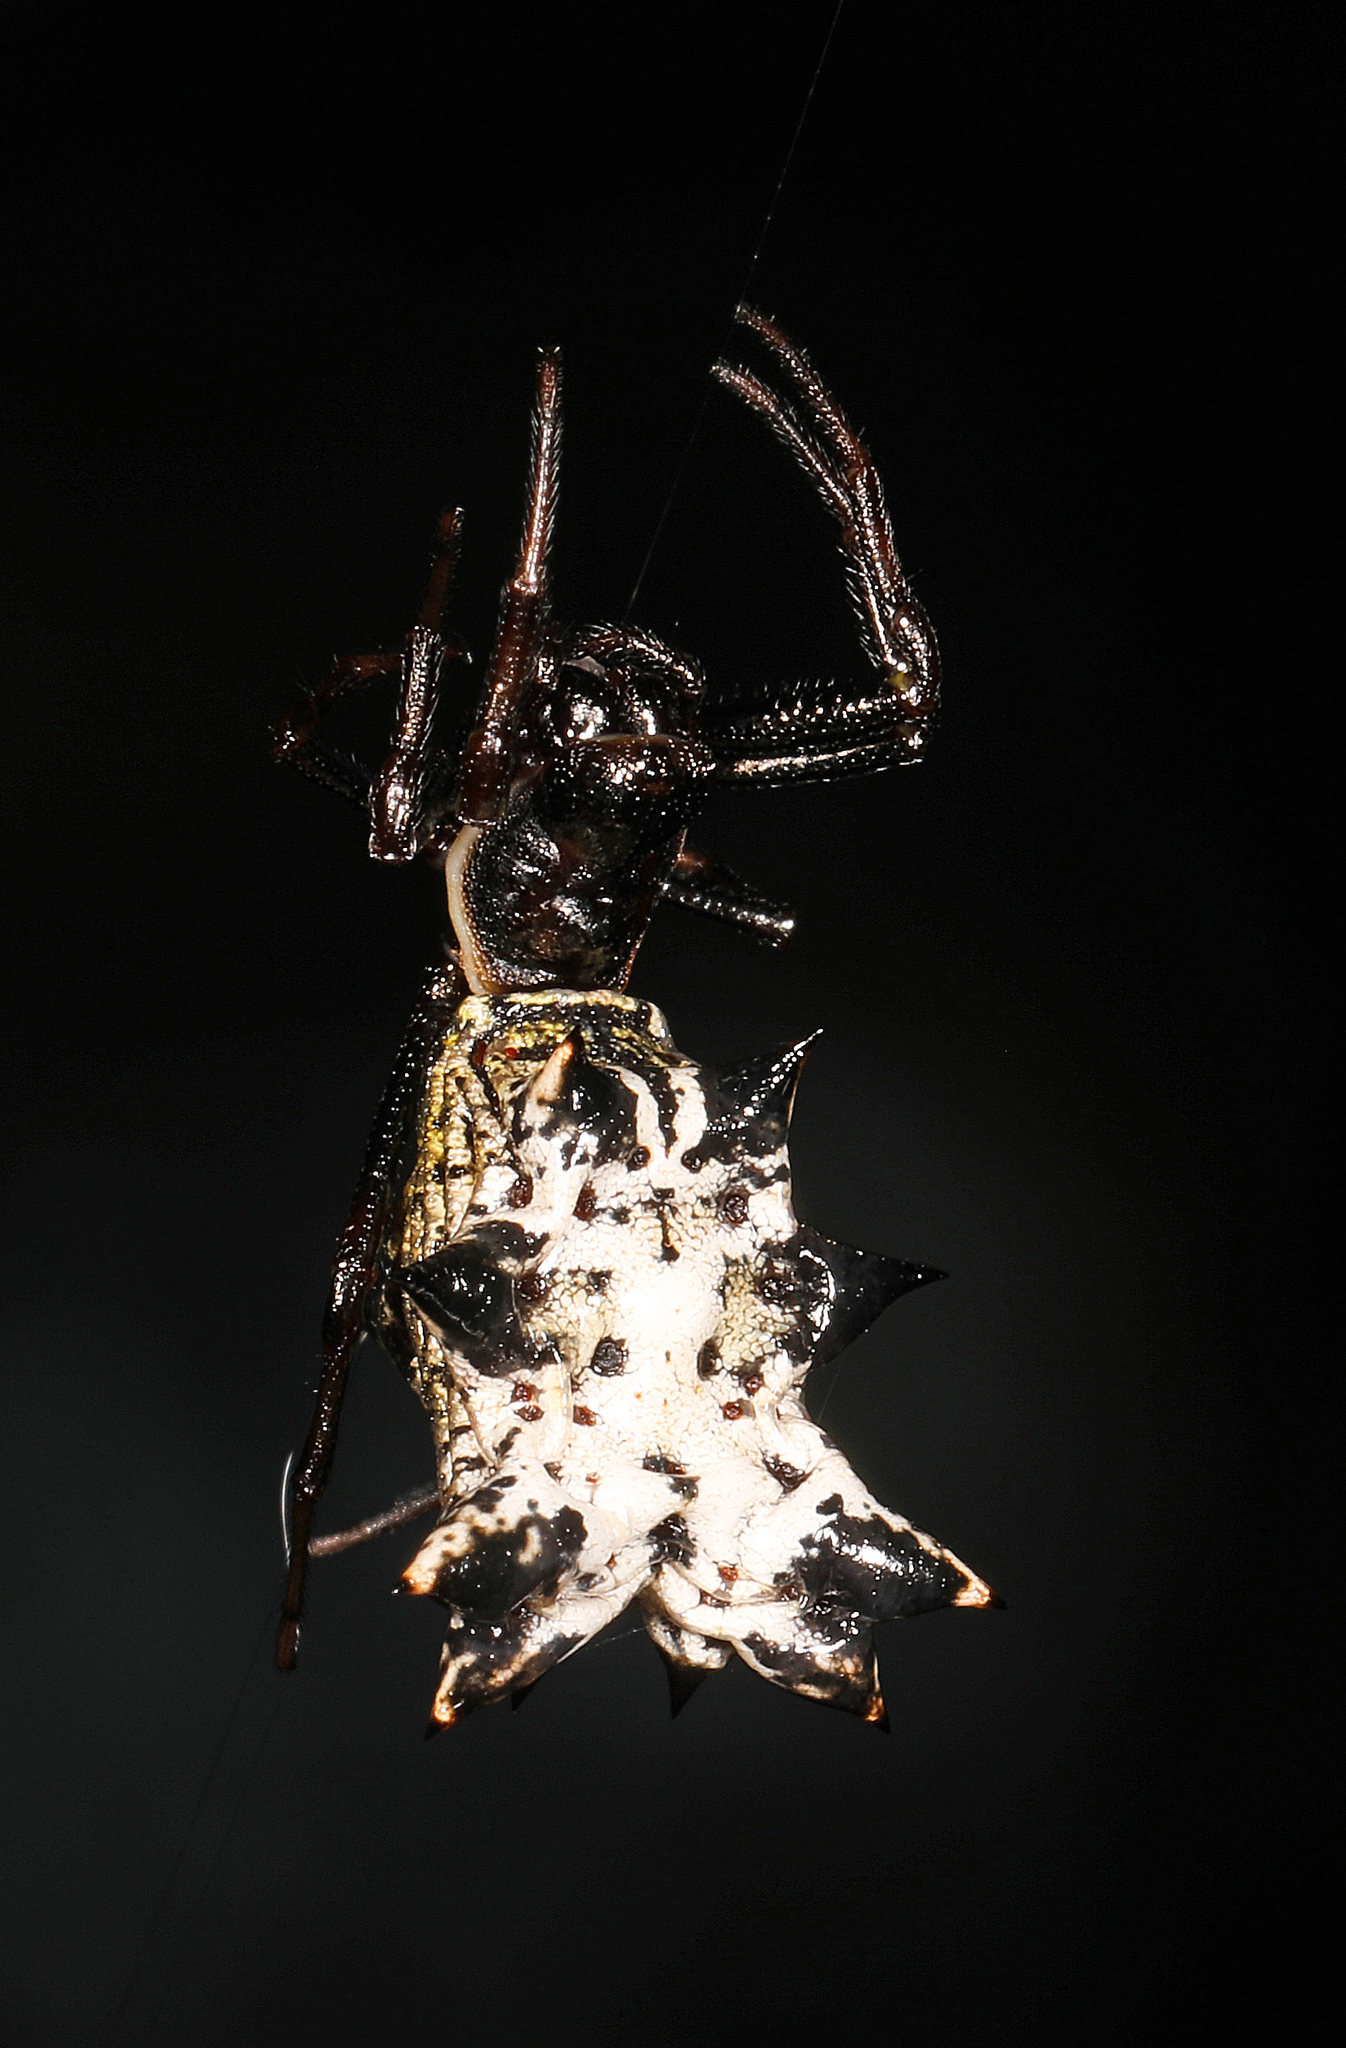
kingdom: Animalia
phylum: Arthropoda
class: Arachnida
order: Araneae
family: Araneidae
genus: Micrathena
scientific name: Micrathena gracilis
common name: Orb weavers
